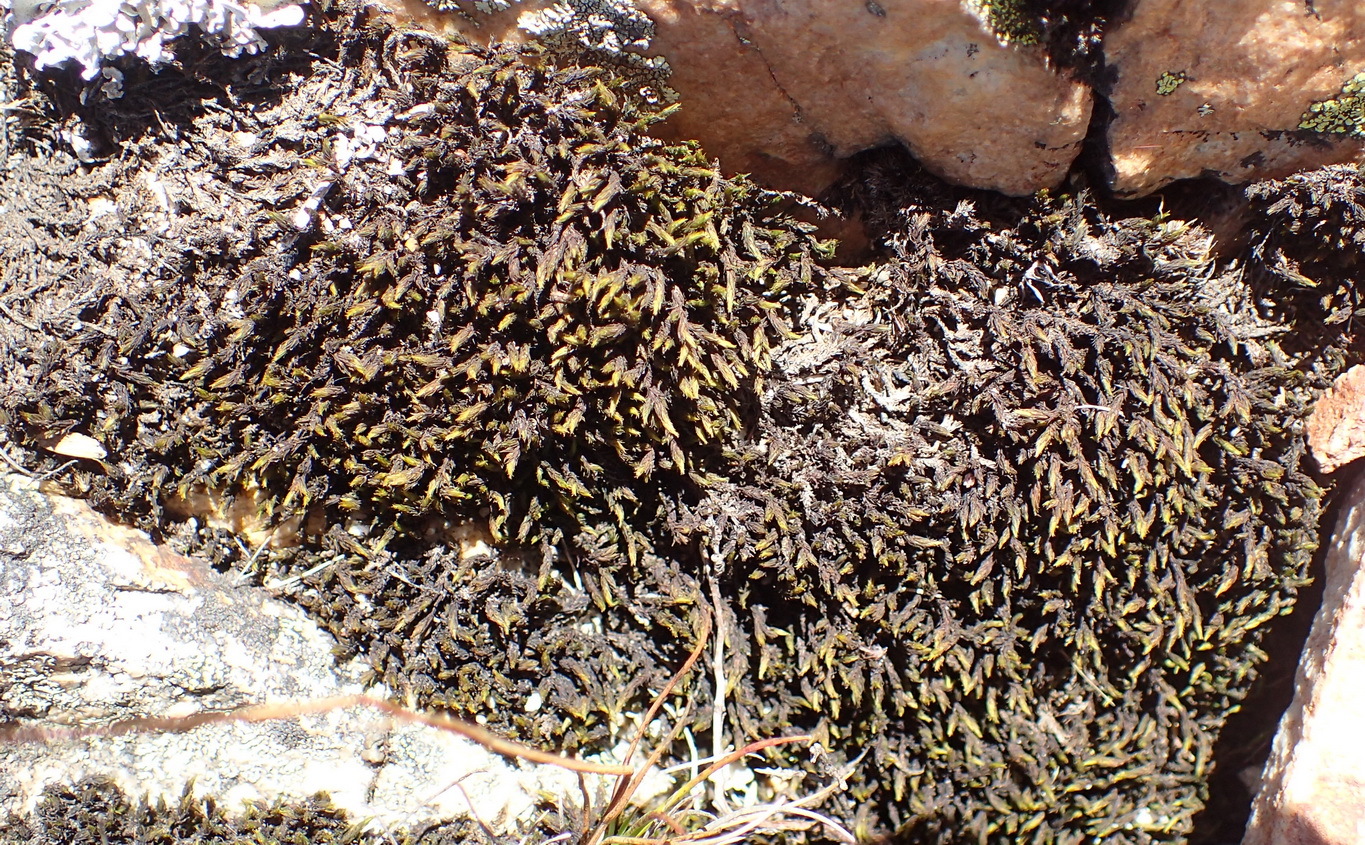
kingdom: Plantae
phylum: Bryophyta
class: Bryopsida
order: Grimmiales
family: Grimmiaceae
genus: Bucklandiella
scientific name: Bucklandiella lamprocarpa
